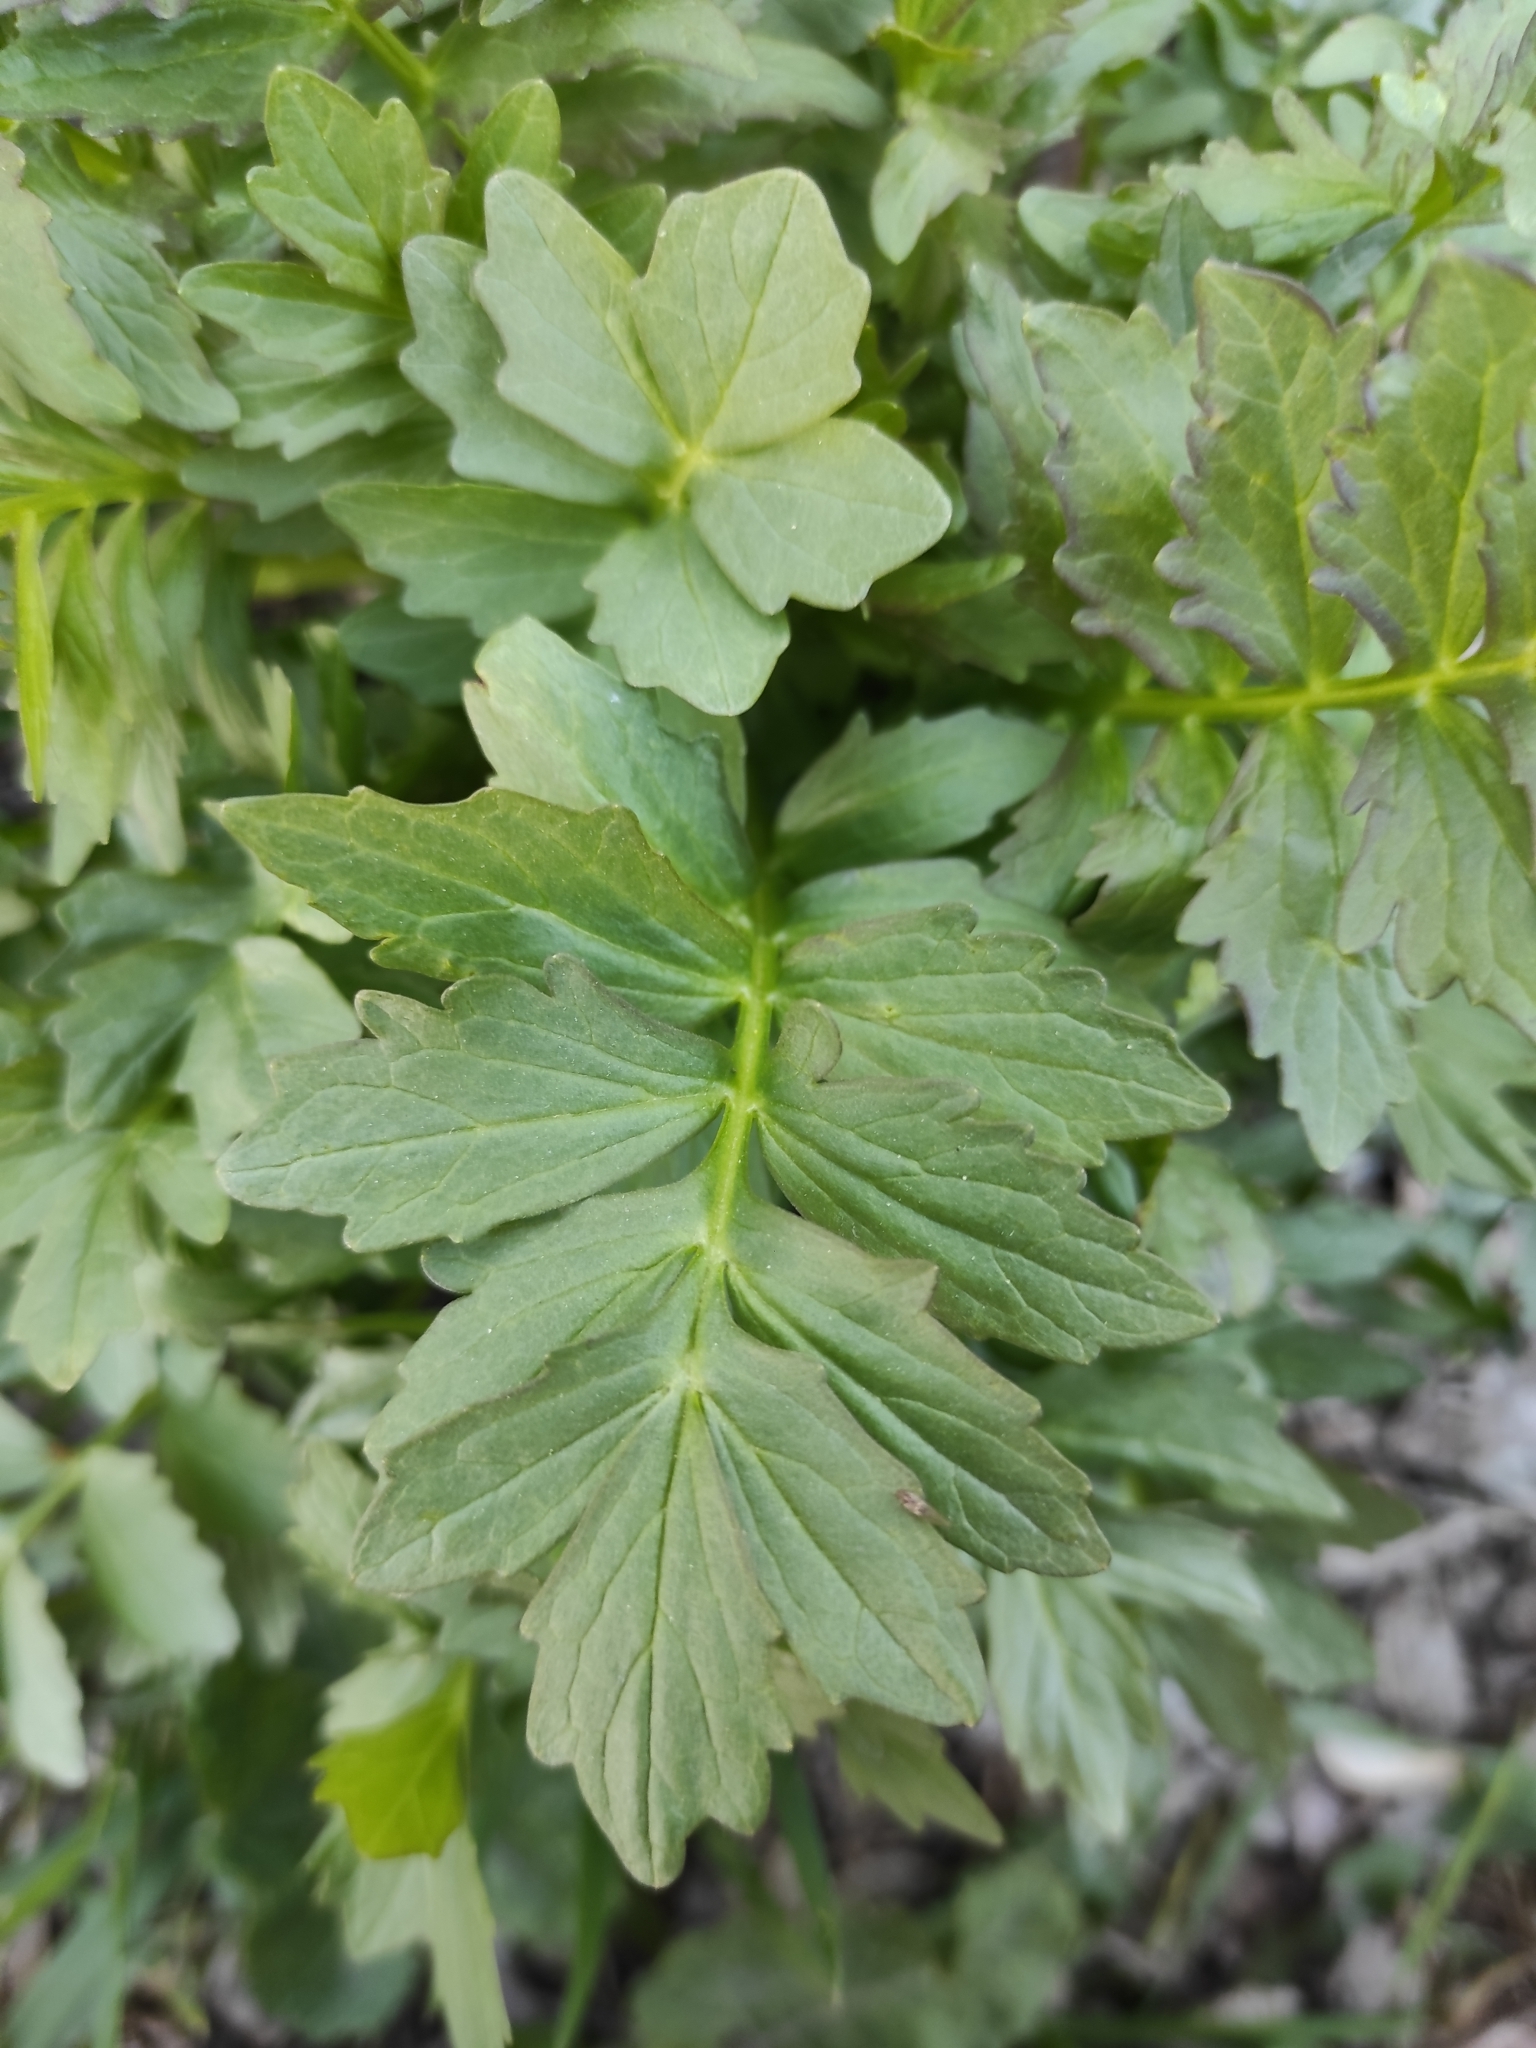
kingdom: Plantae
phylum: Tracheophyta
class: Magnoliopsida
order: Dipsacales
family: Caprifoliaceae
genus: Valeriana
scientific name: Valeriana wolgensis
